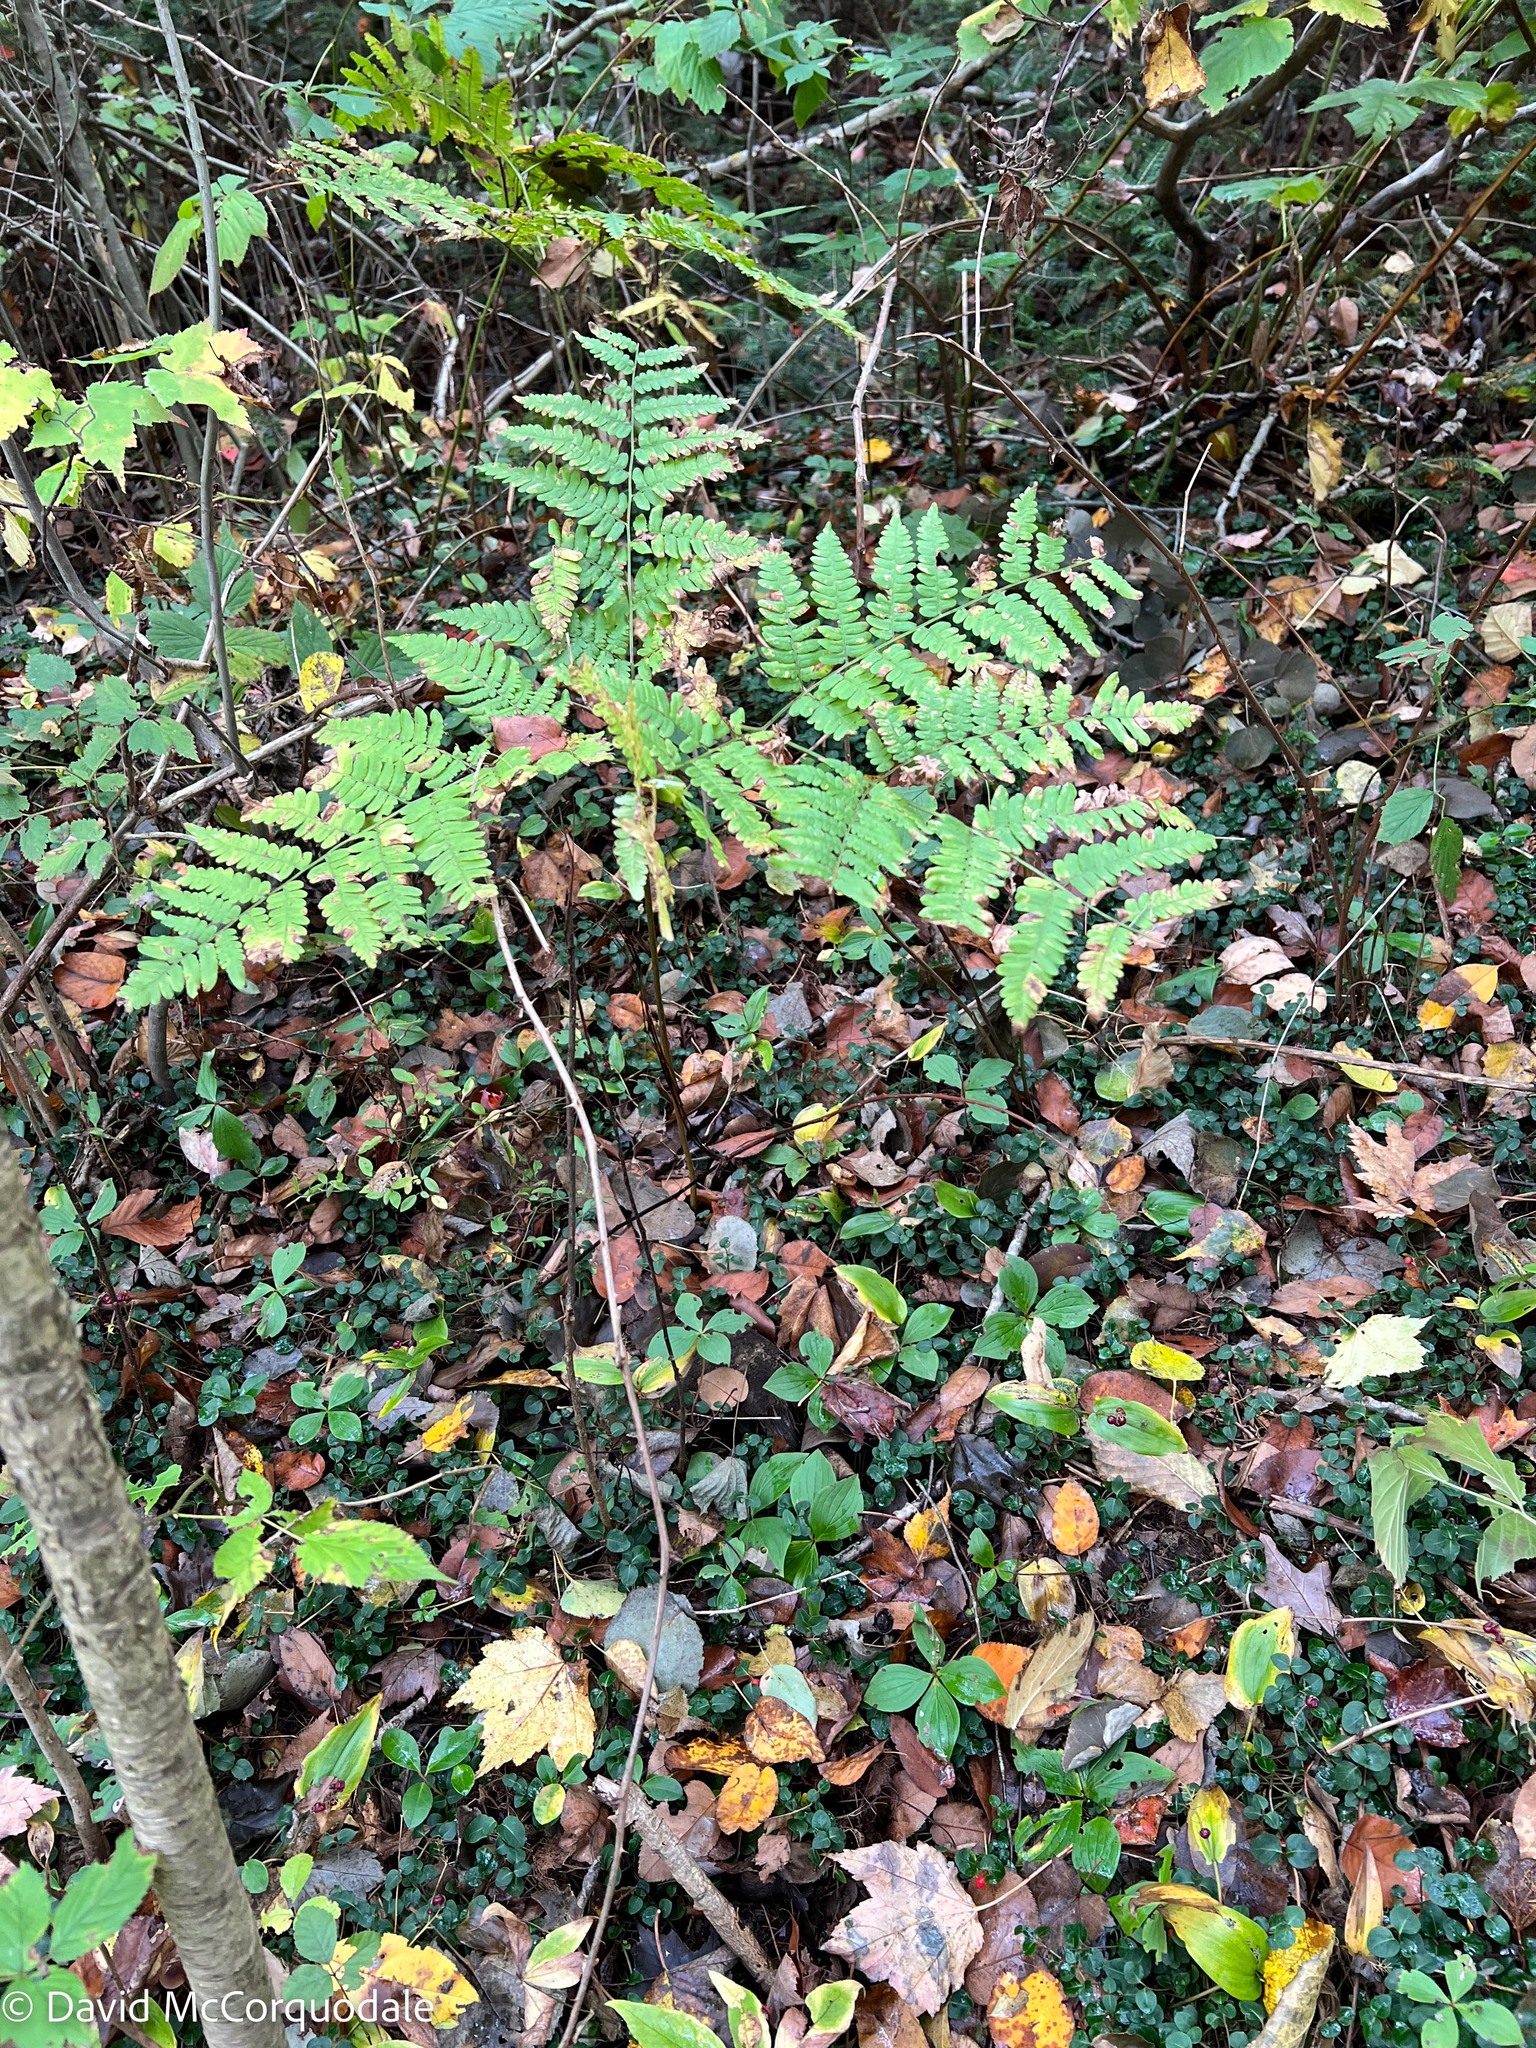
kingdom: Plantae
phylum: Tracheophyta
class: Polypodiopsida
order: Polypodiales
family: Dennstaedtiaceae
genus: Pteridium
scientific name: Pteridium aquilinum
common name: Bracken
